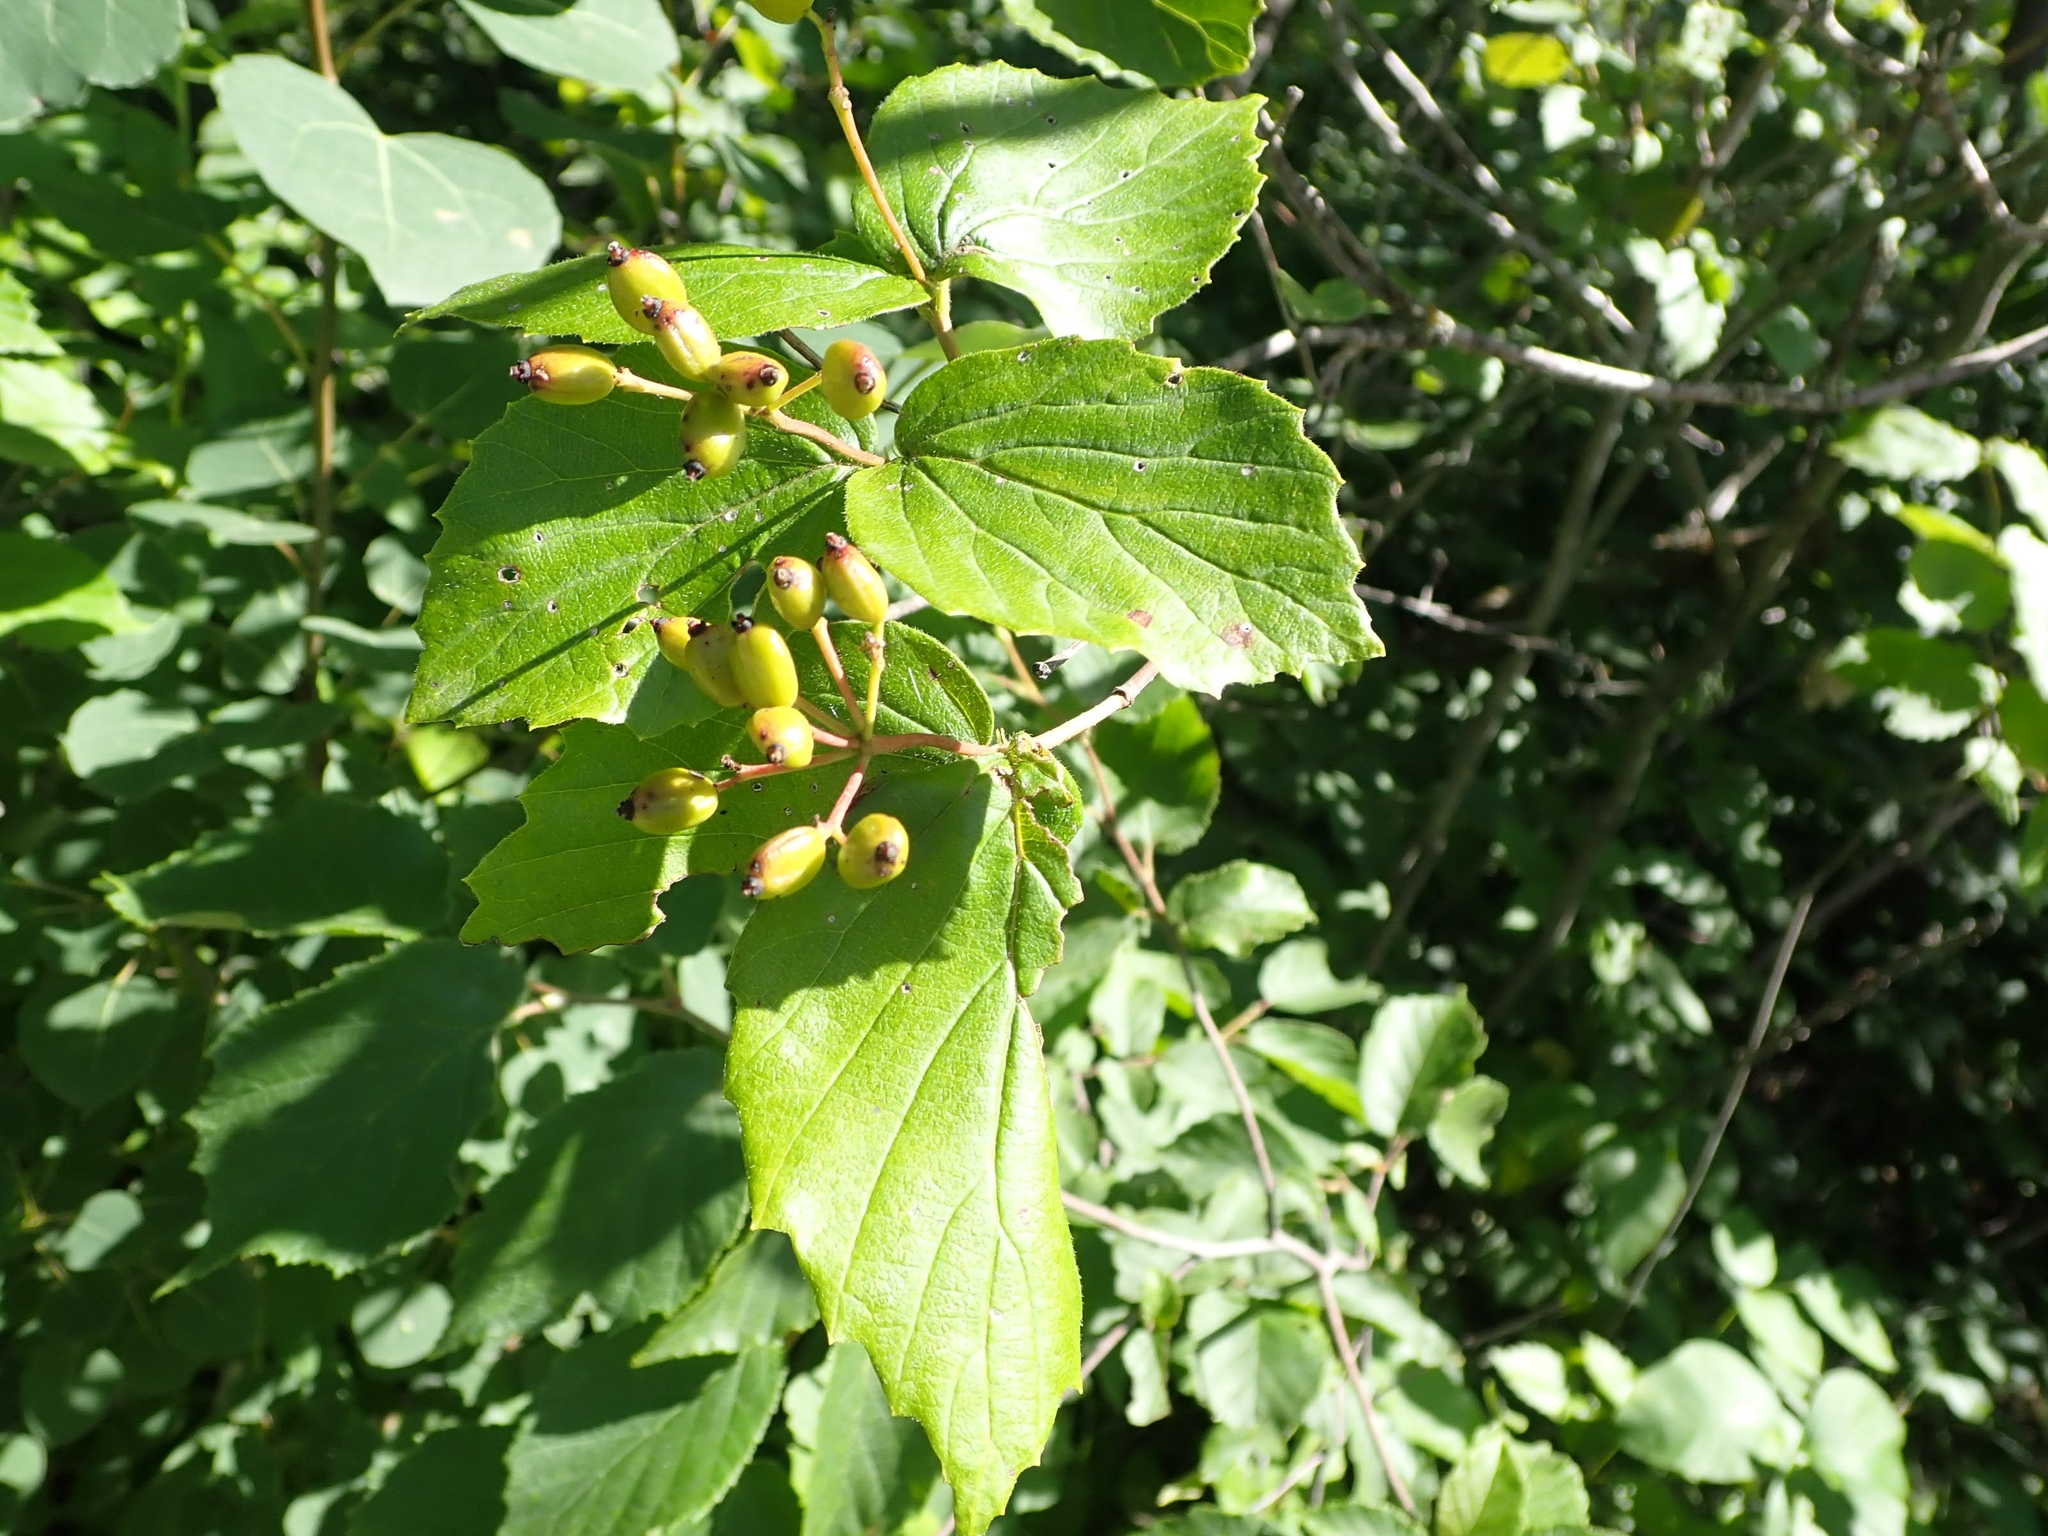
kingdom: Plantae
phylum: Tracheophyta
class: Magnoliopsida
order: Dipsacales
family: Viburnaceae
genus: Viburnum
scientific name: Viburnum rafinesqueanum
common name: Downy arrow-wood
